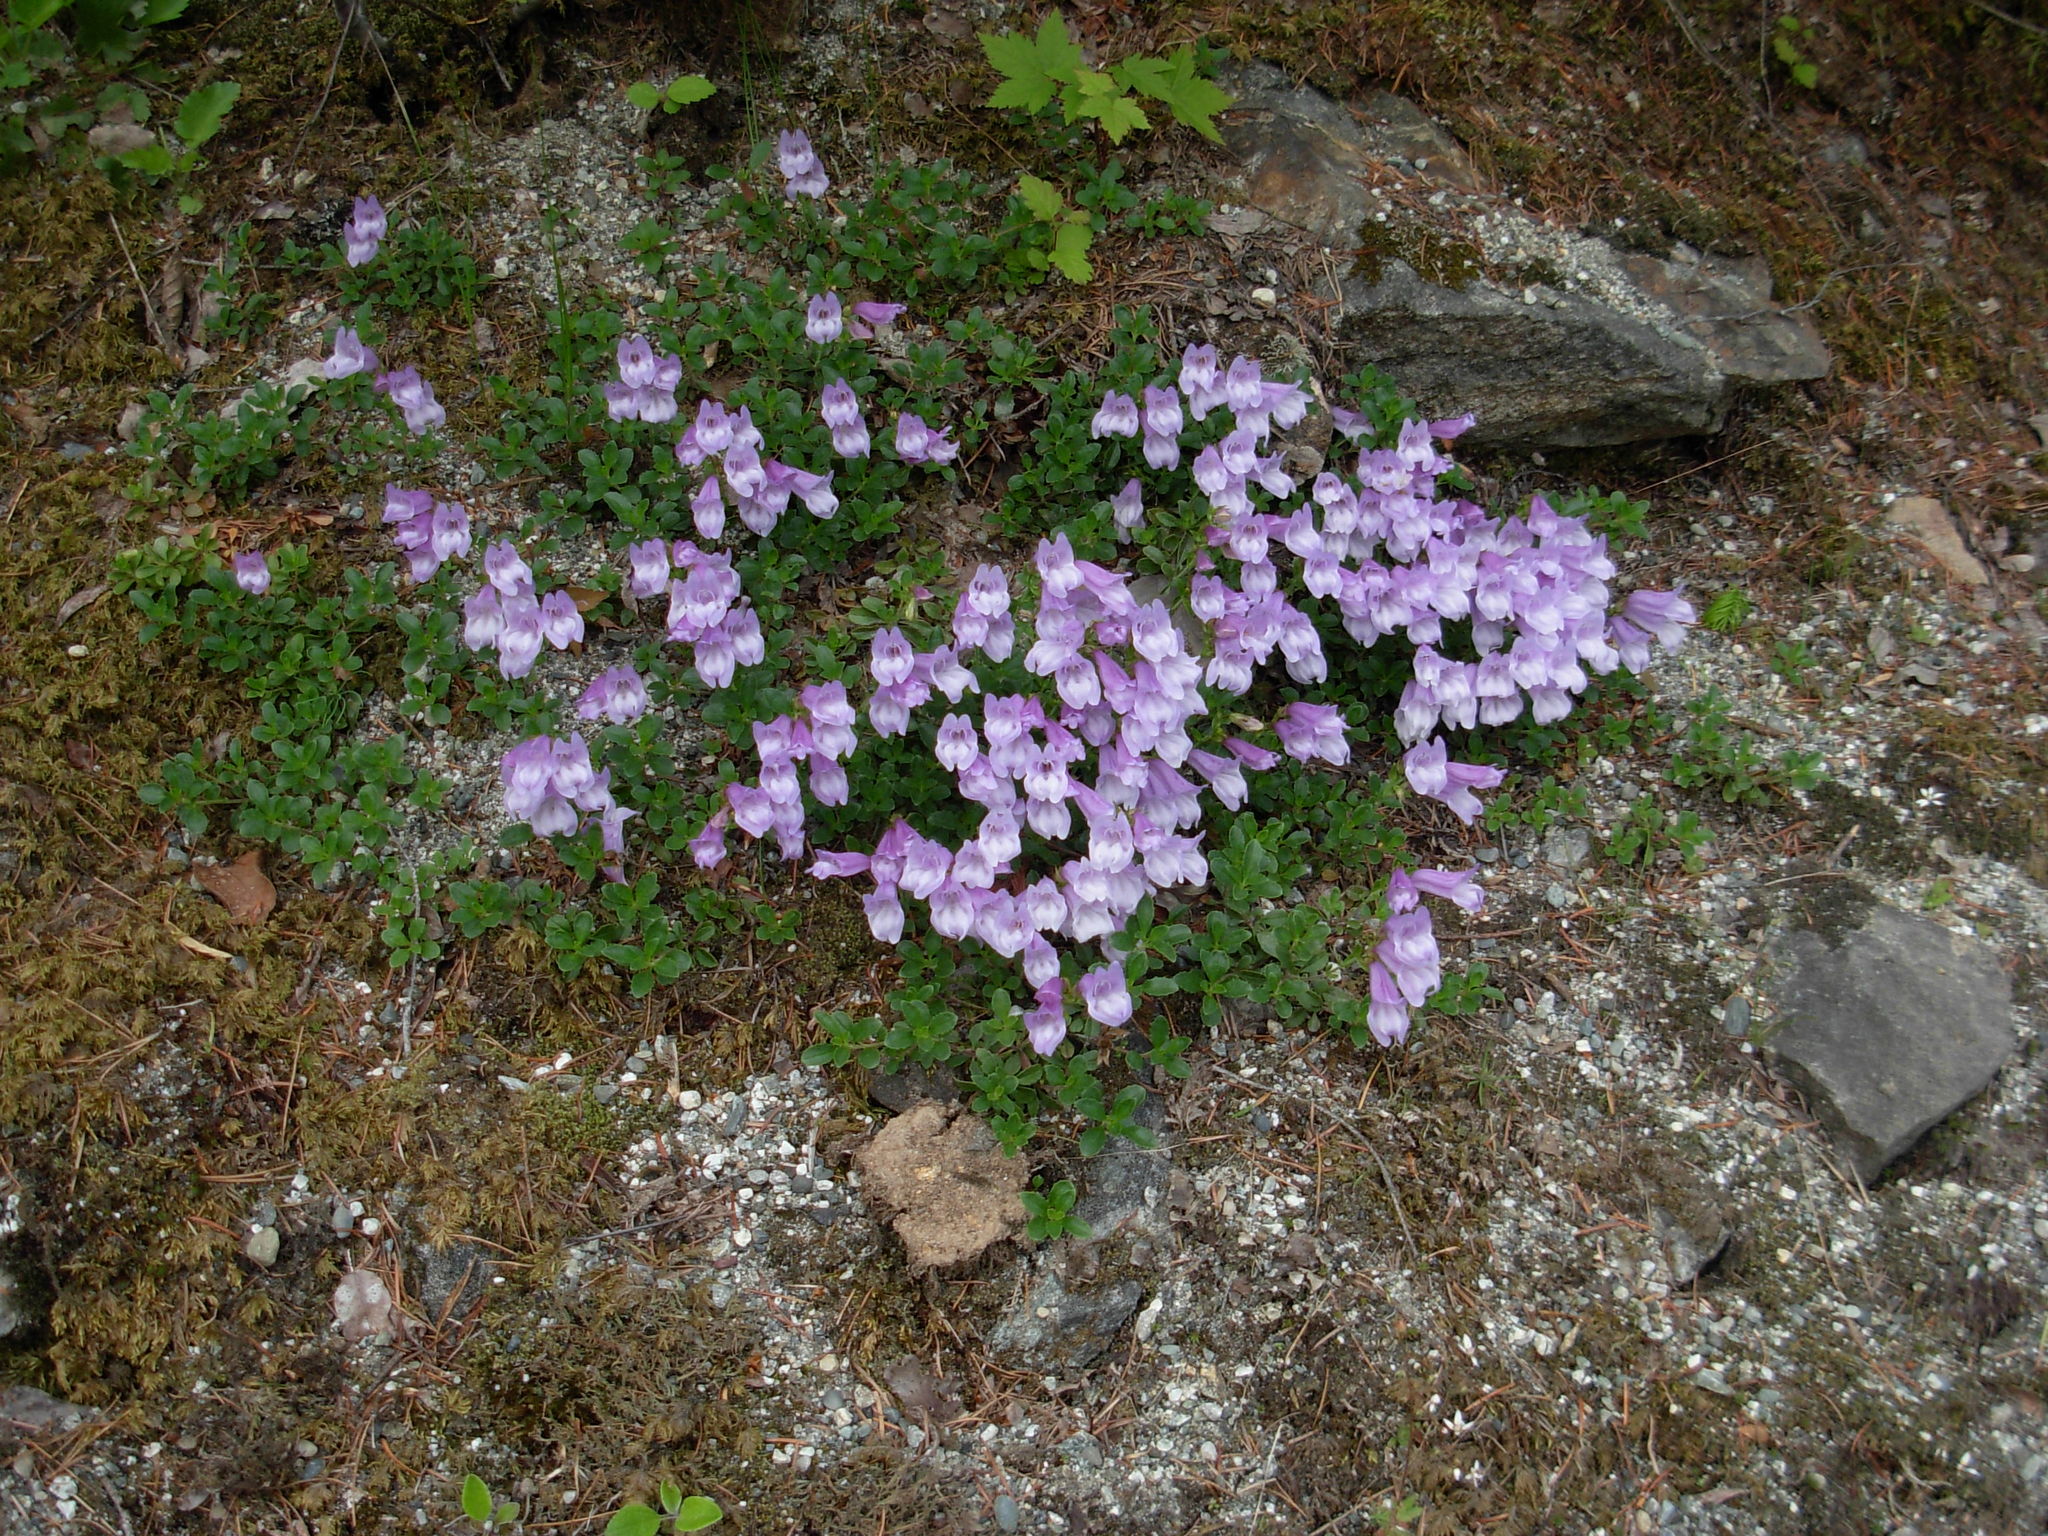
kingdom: Plantae
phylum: Tracheophyta
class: Magnoliopsida
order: Lamiales
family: Plantaginaceae
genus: Penstemon
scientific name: Penstemon davidsonii
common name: Davidson's penstemon
